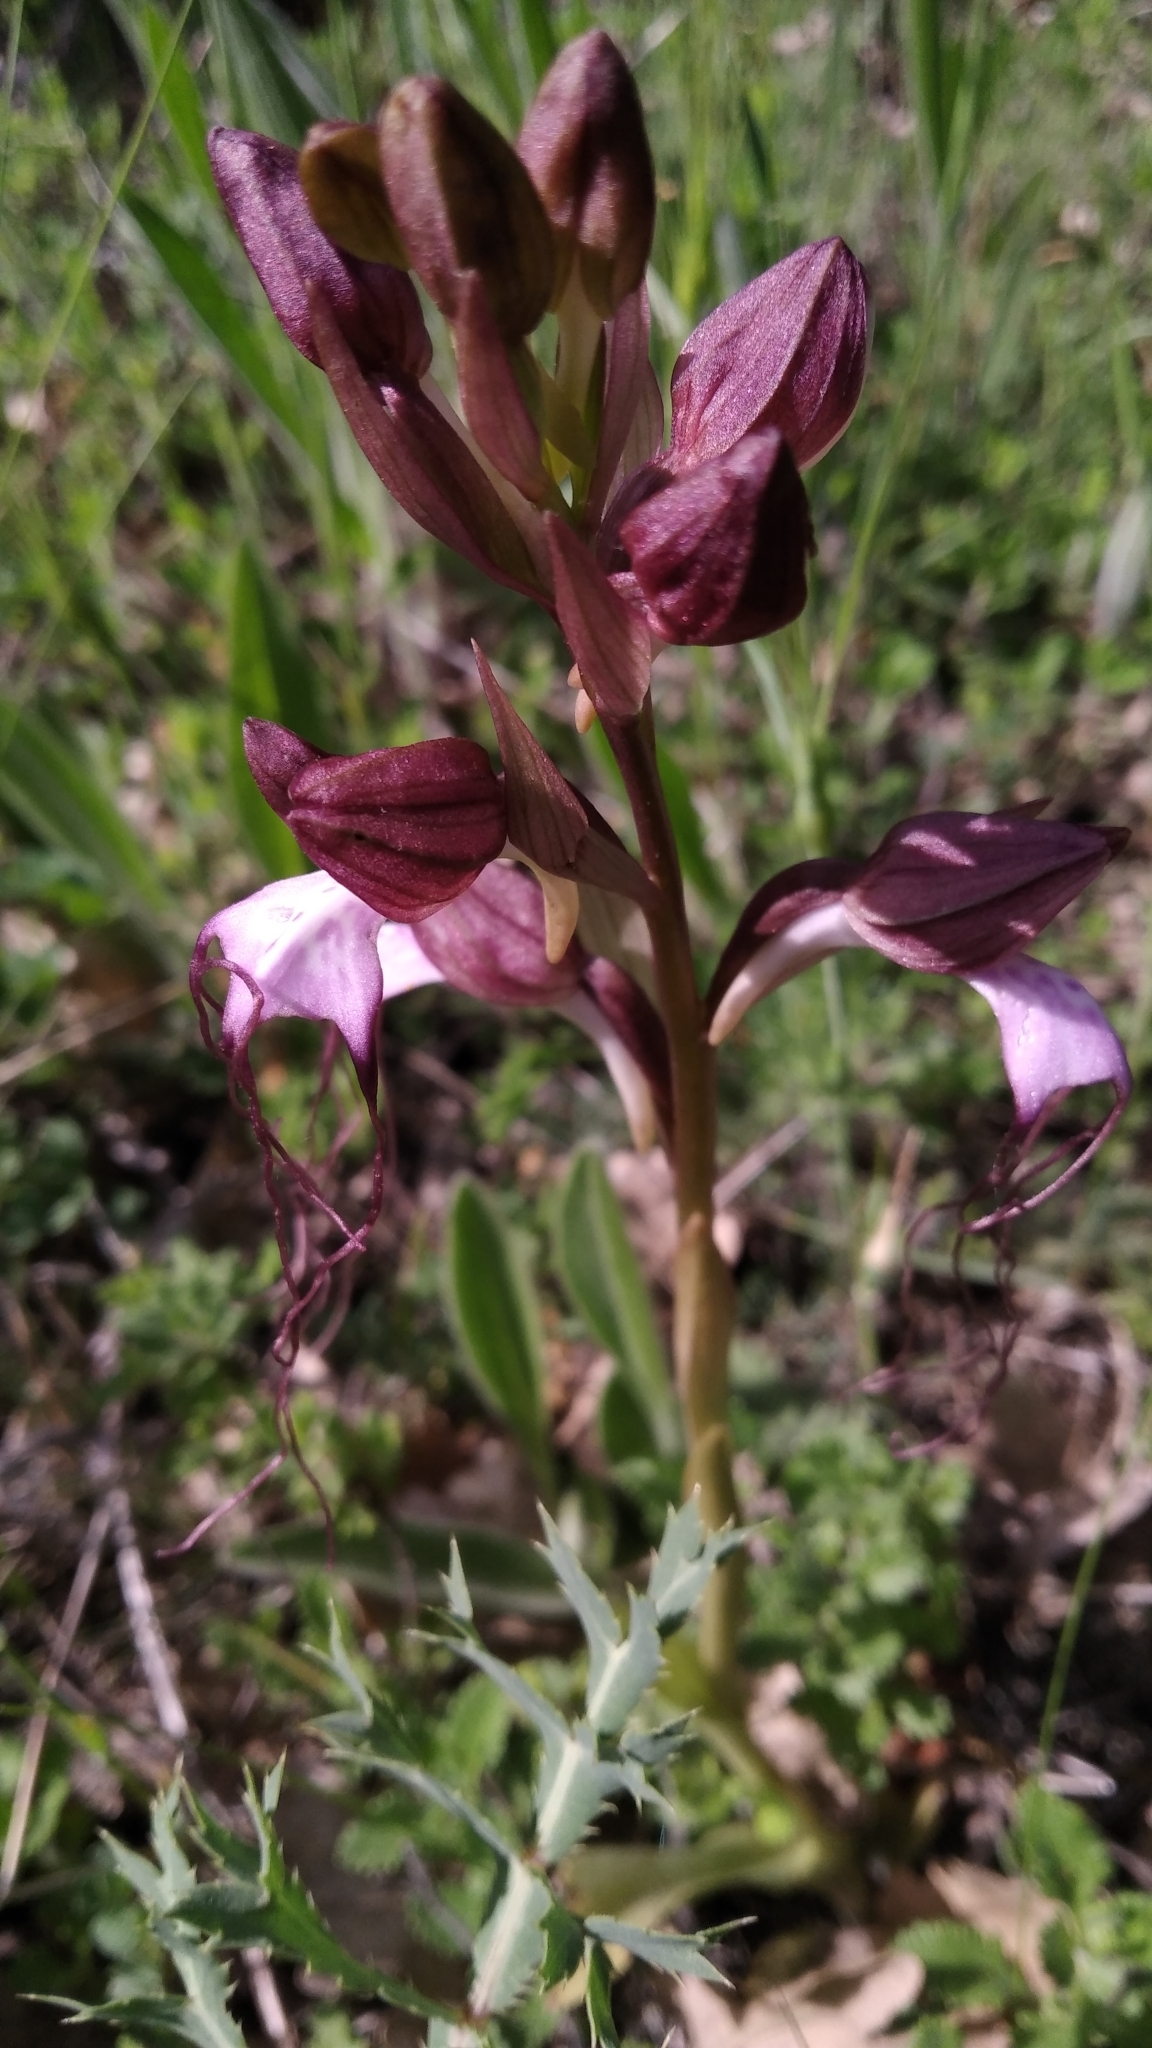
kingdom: Plantae
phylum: Tracheophyta
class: Liliopsida
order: Asparagales
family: Orchidaceae
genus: Himantoglossum
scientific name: Himantoglossum comperianum
